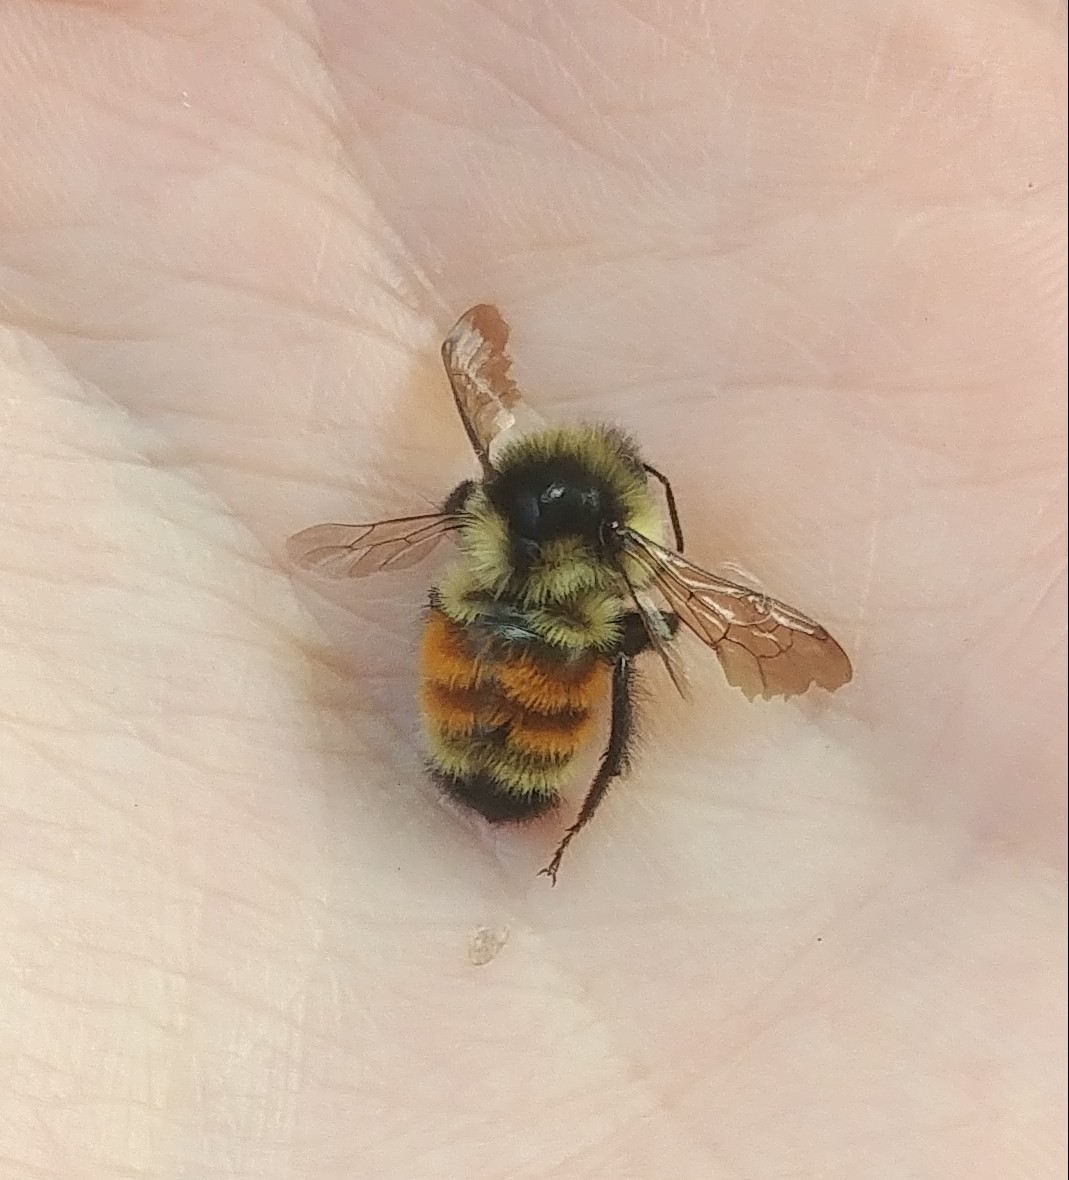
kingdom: Animalia
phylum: Arthropoda
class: Insecta
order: Hymenoptera
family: Apidae
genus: Bombus
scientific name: Bombus ternarius
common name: Tri-colored bumble bee
